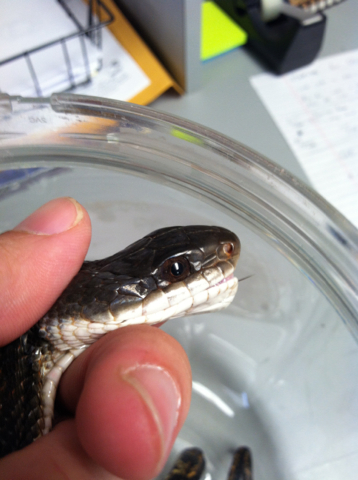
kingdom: Animalia
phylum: Chordata
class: Squamata
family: Colubridae
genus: Pantherophis
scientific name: Pantherophis obsoletus
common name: Black rat snake
